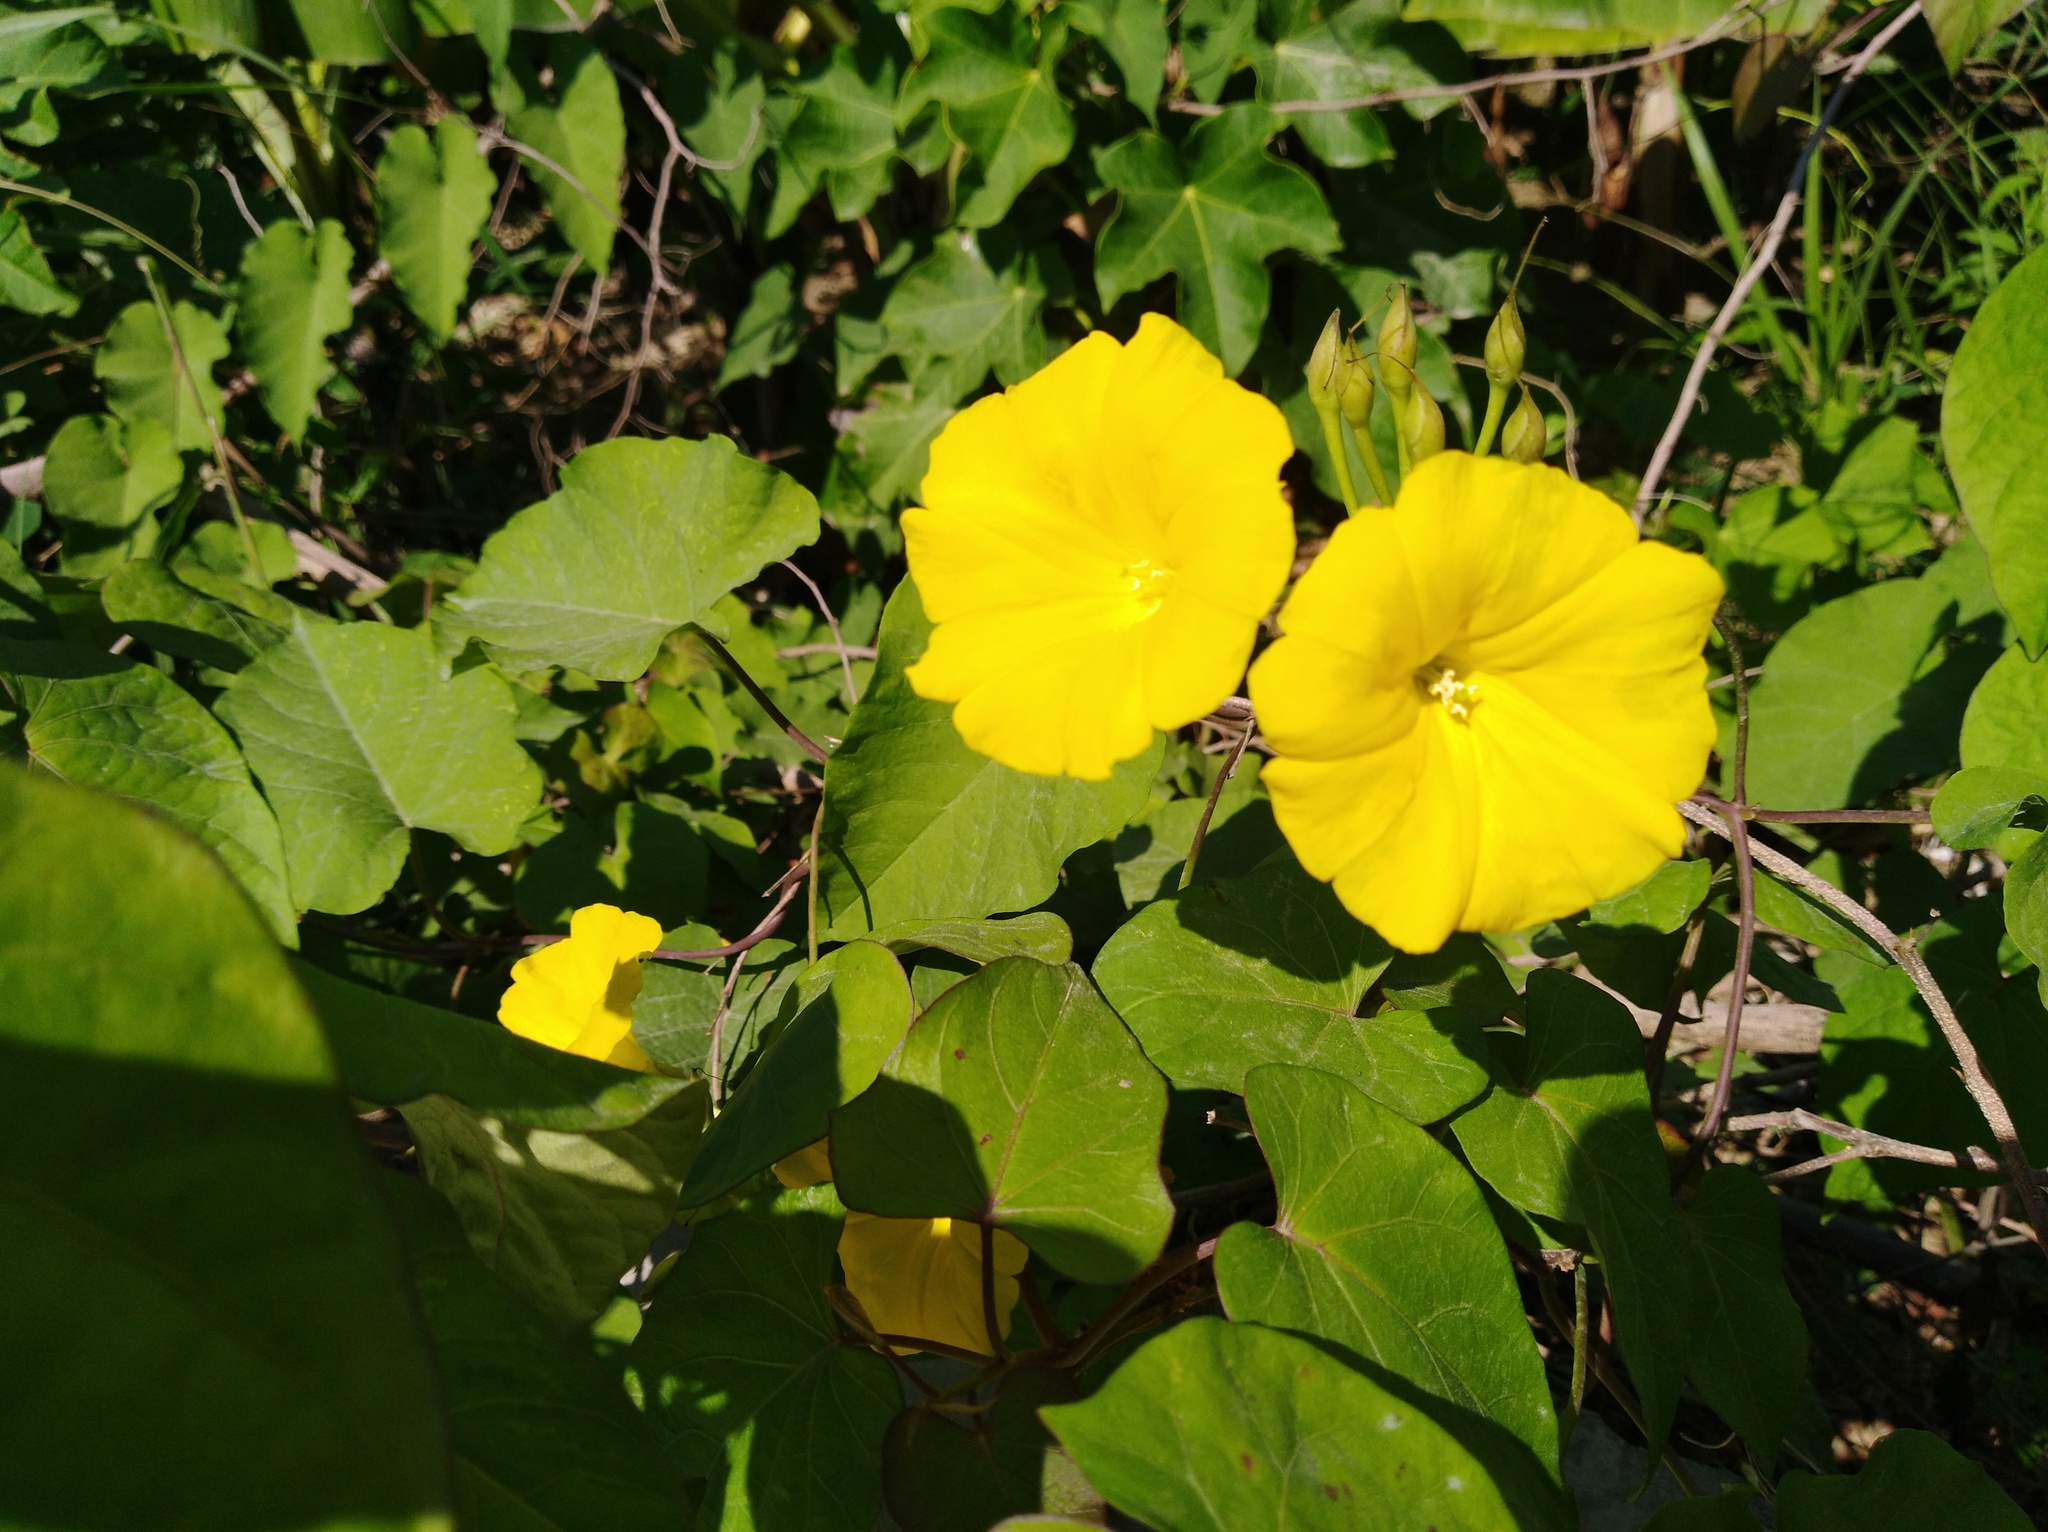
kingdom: Plantae
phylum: Tracheophyta
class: Magnoliopsida
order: Solanales
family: Convolvulaceae
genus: Camonea
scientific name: Camonea umbellata
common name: Hogvine
